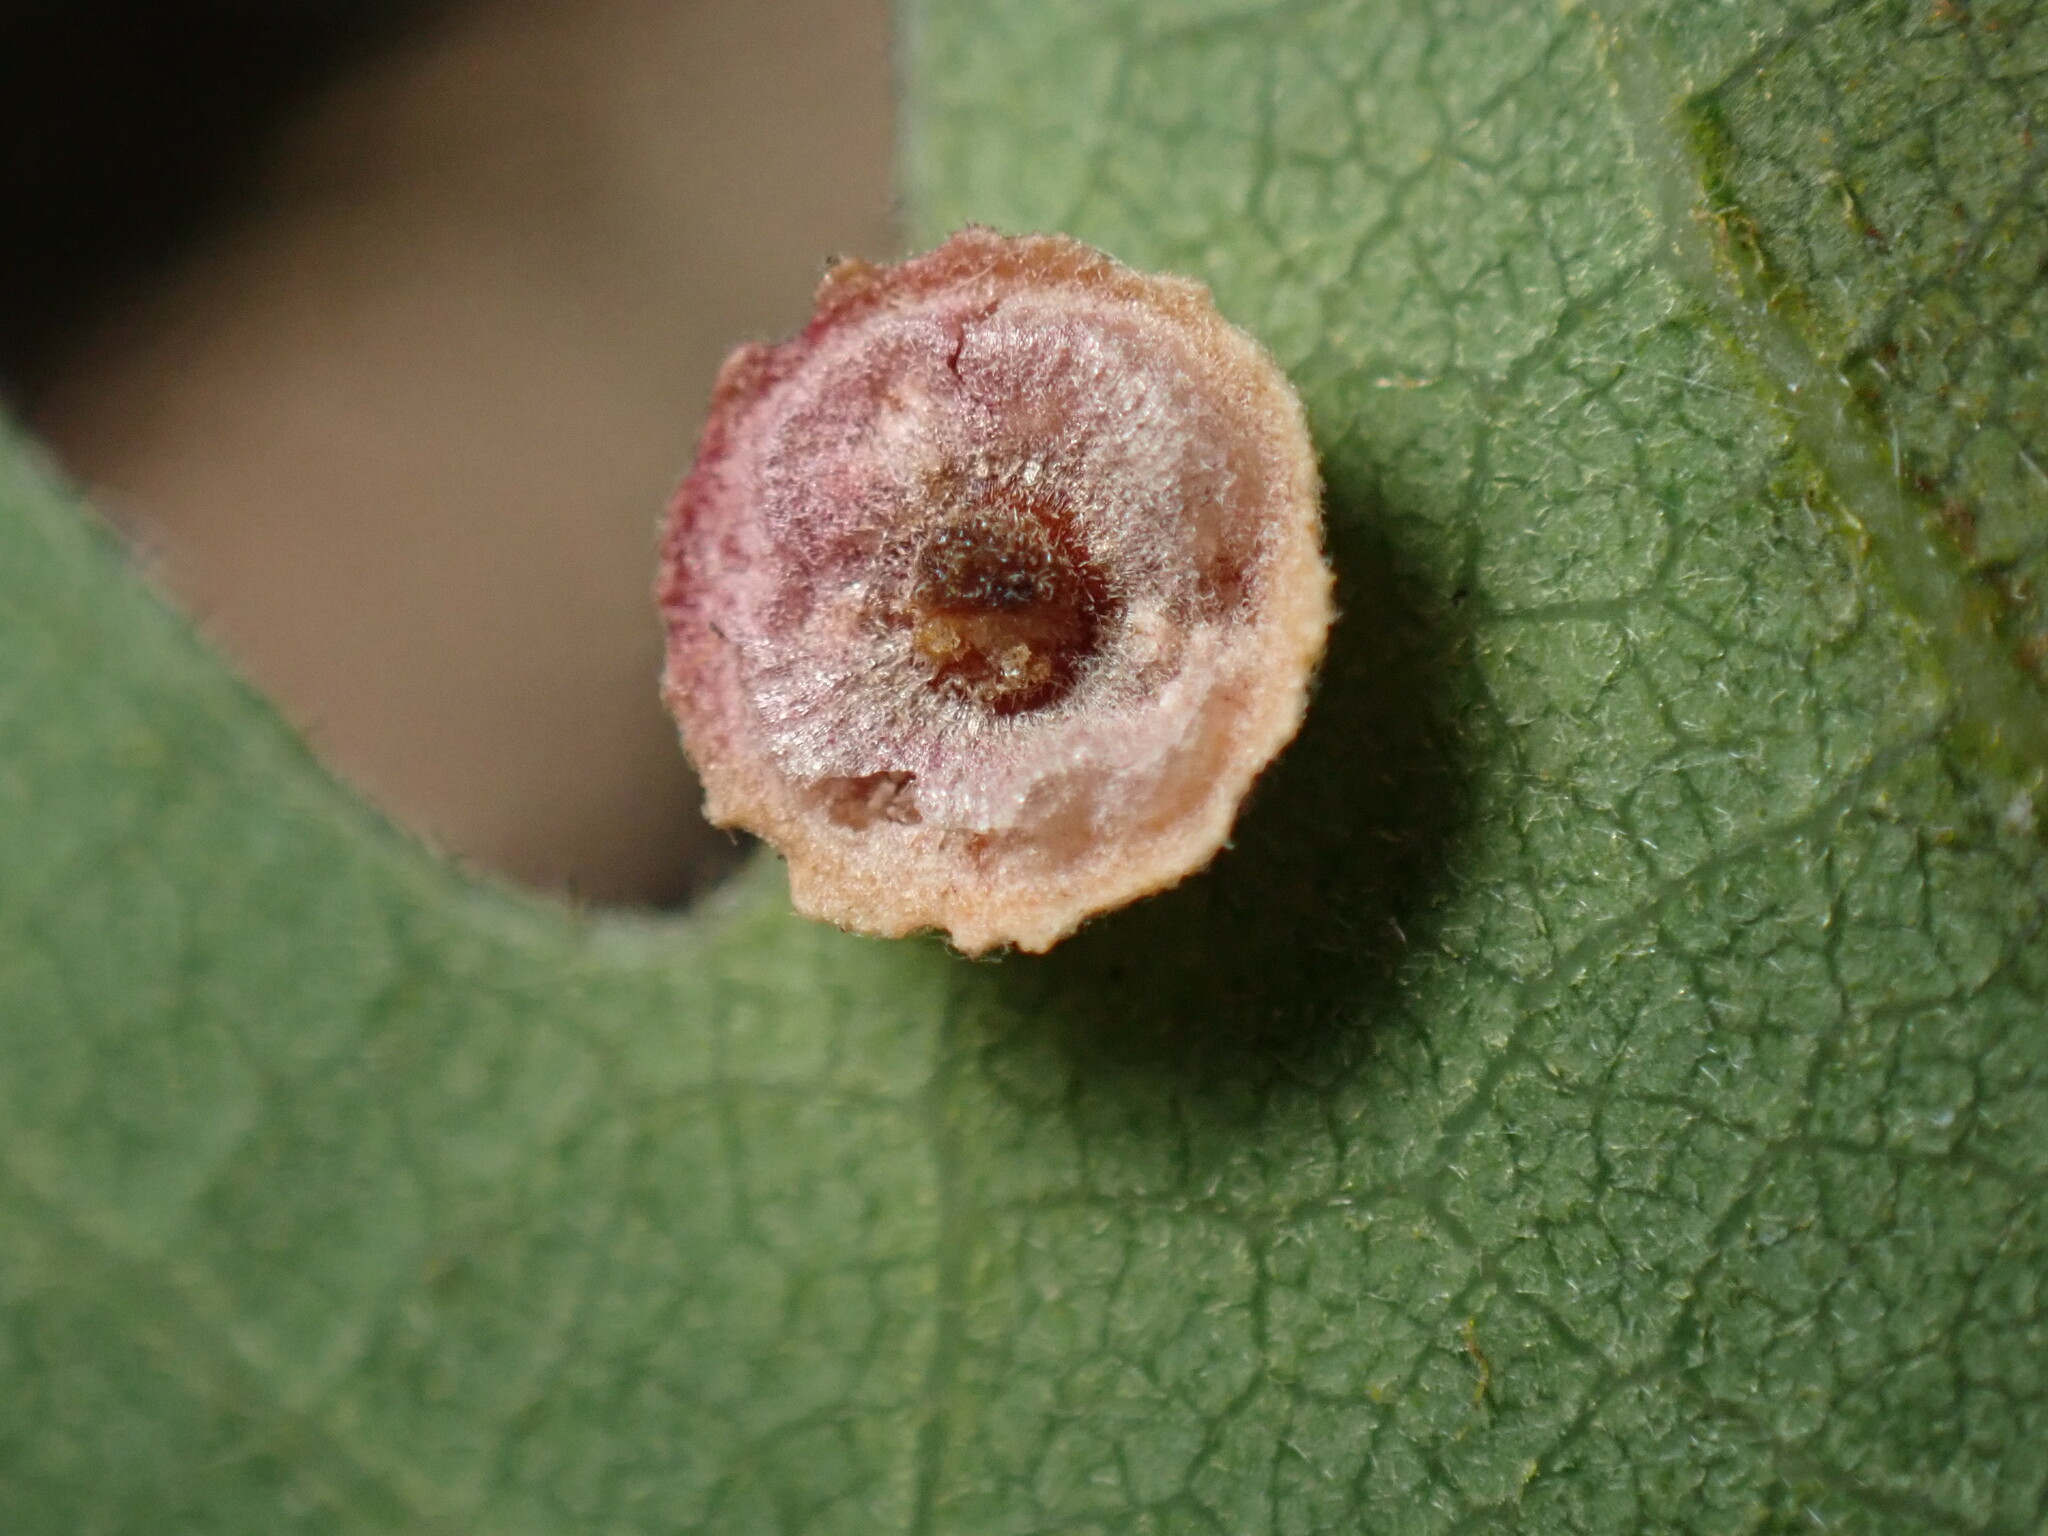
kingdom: Animalia
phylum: Arthropoda
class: Insecta
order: Hymenoptera
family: Cynipidae
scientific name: Cynipidae
